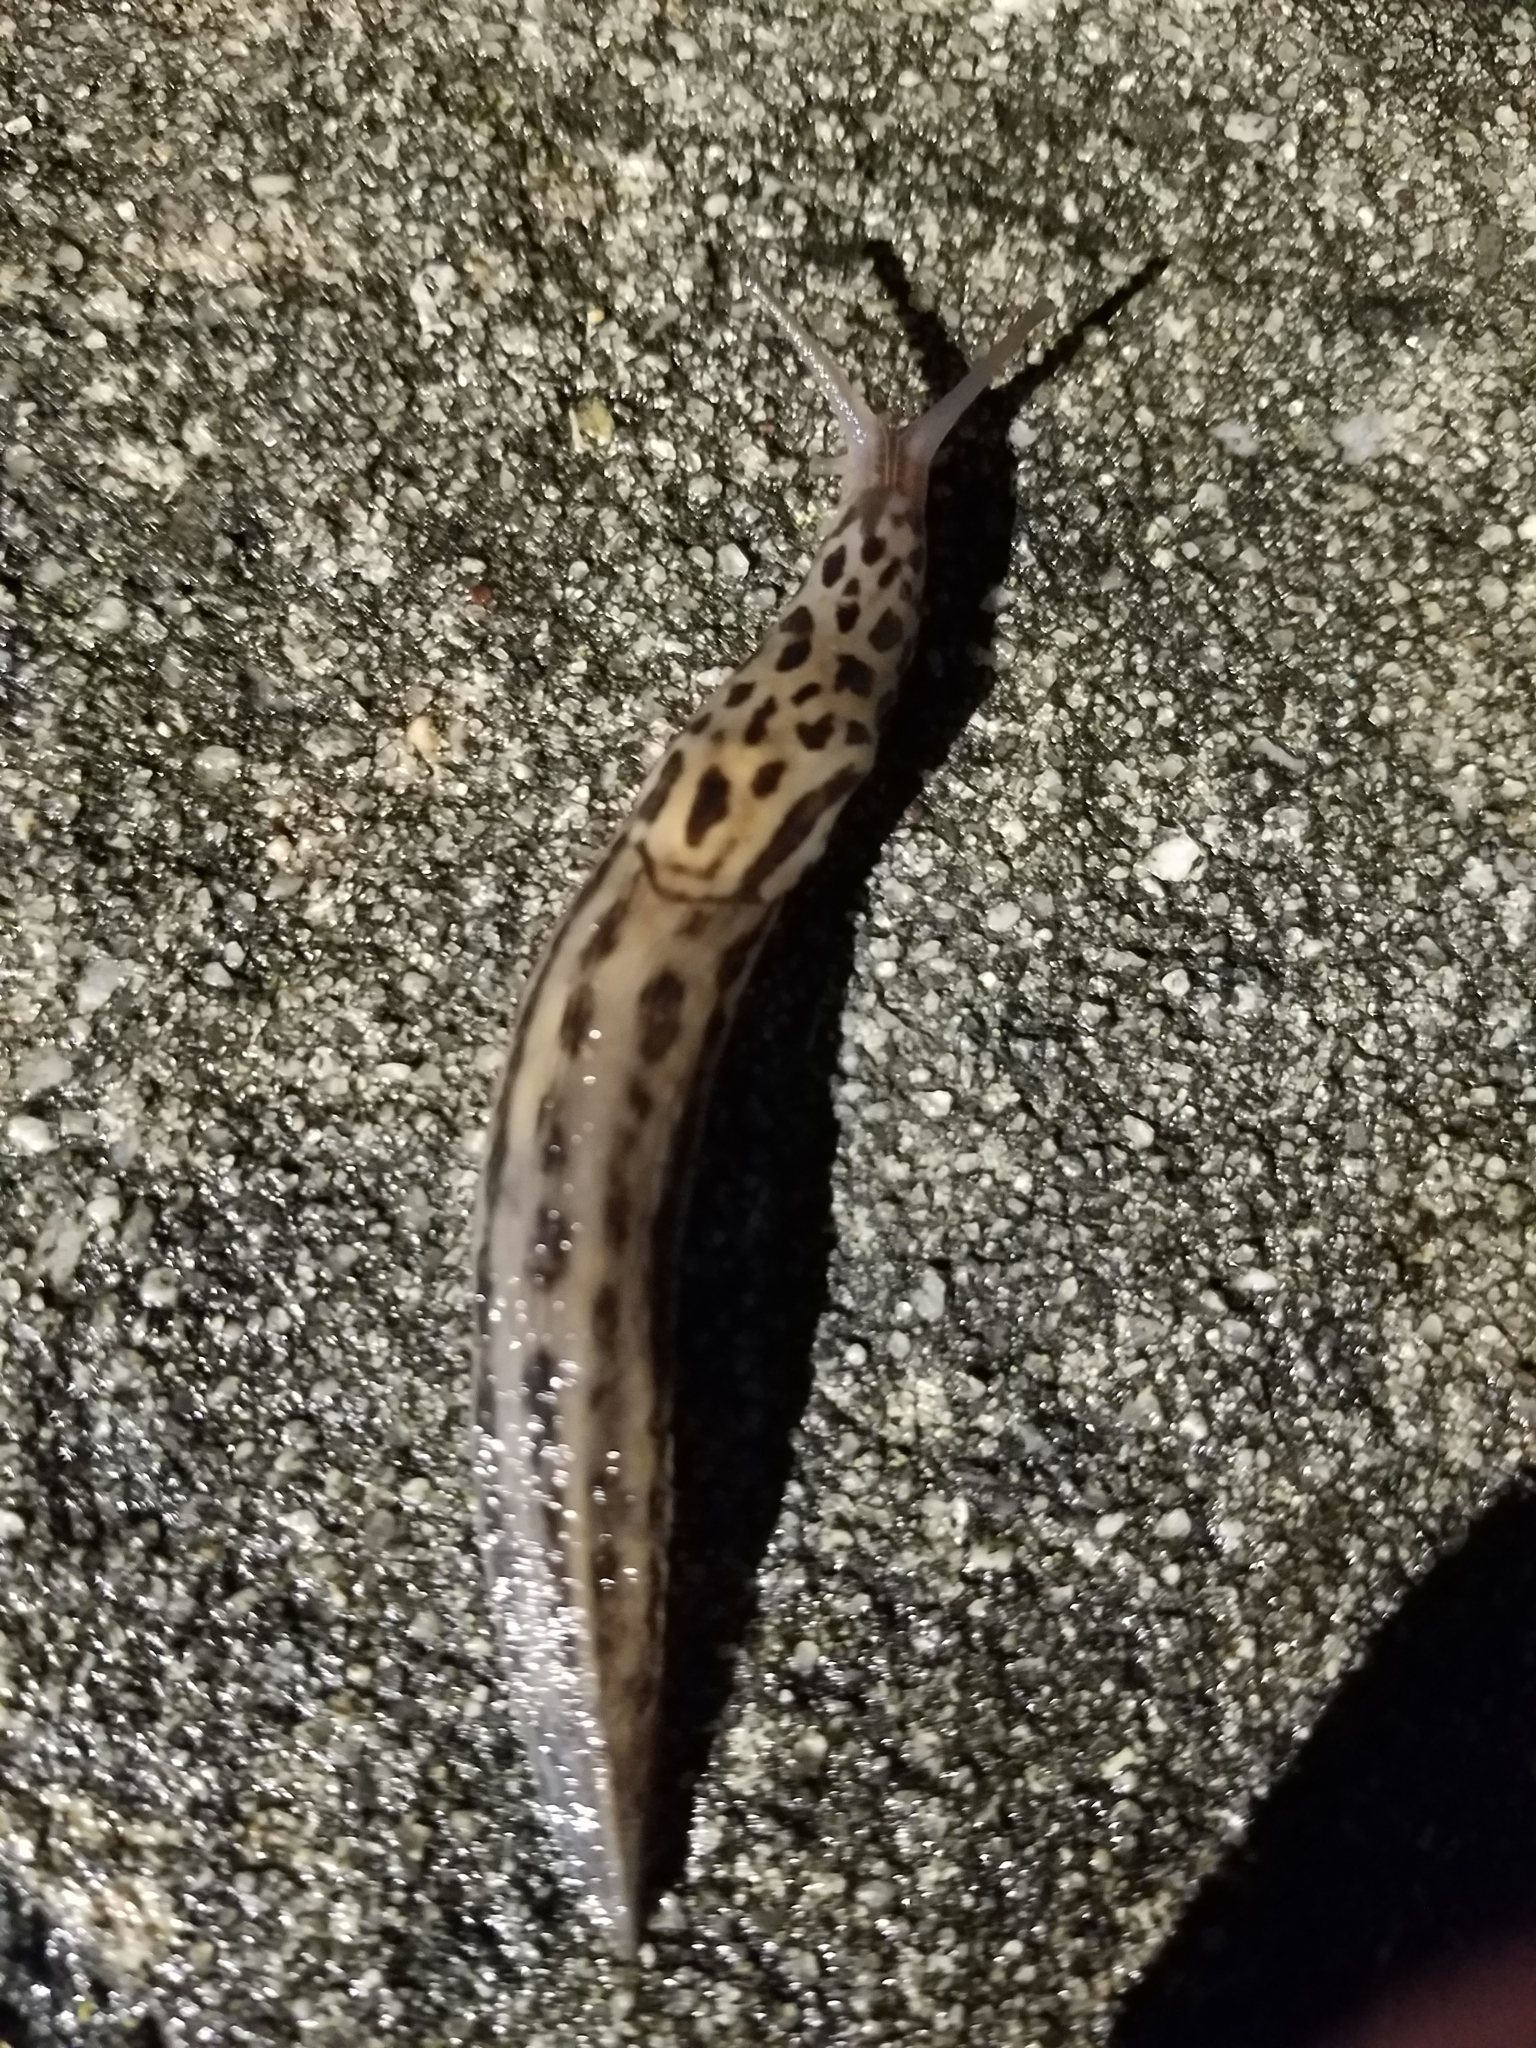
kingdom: Animalia
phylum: Mollusca
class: Gastropoda
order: Stylommatophora
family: Limacidae
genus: Limax
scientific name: Limax maximus
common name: Great grey slug
